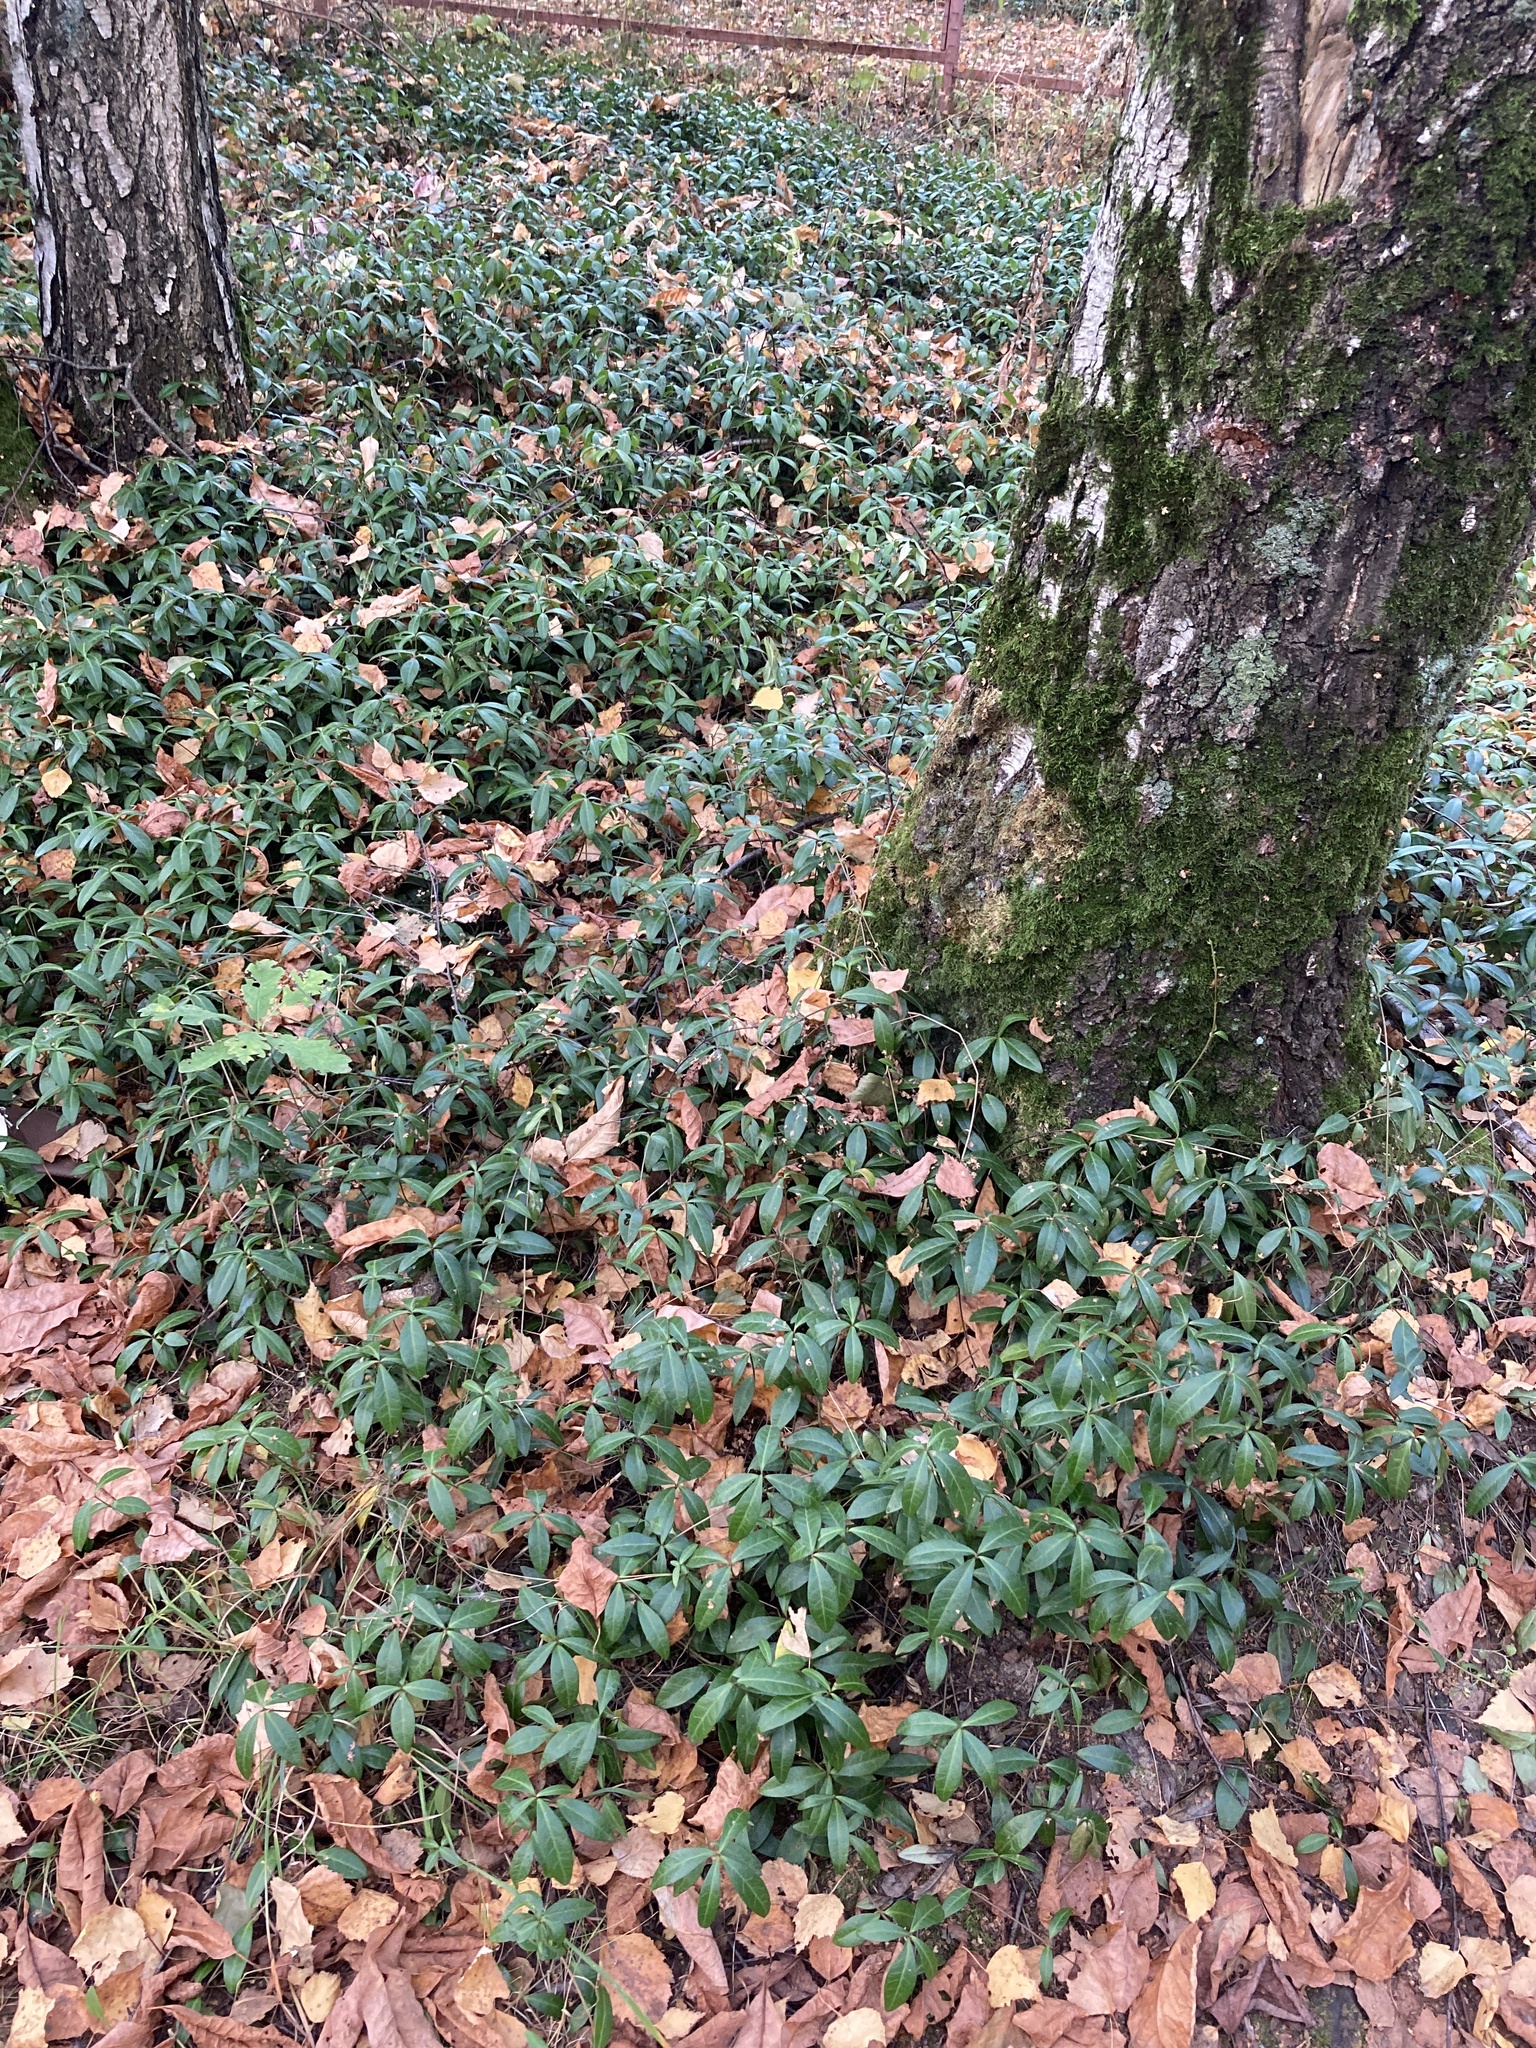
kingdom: Plantae
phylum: Tracheophyta
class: Magnoliopsida
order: Gentianales
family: Apocynaceae
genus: Vinca
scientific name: Vinca minor
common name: Lesser periwinkle
